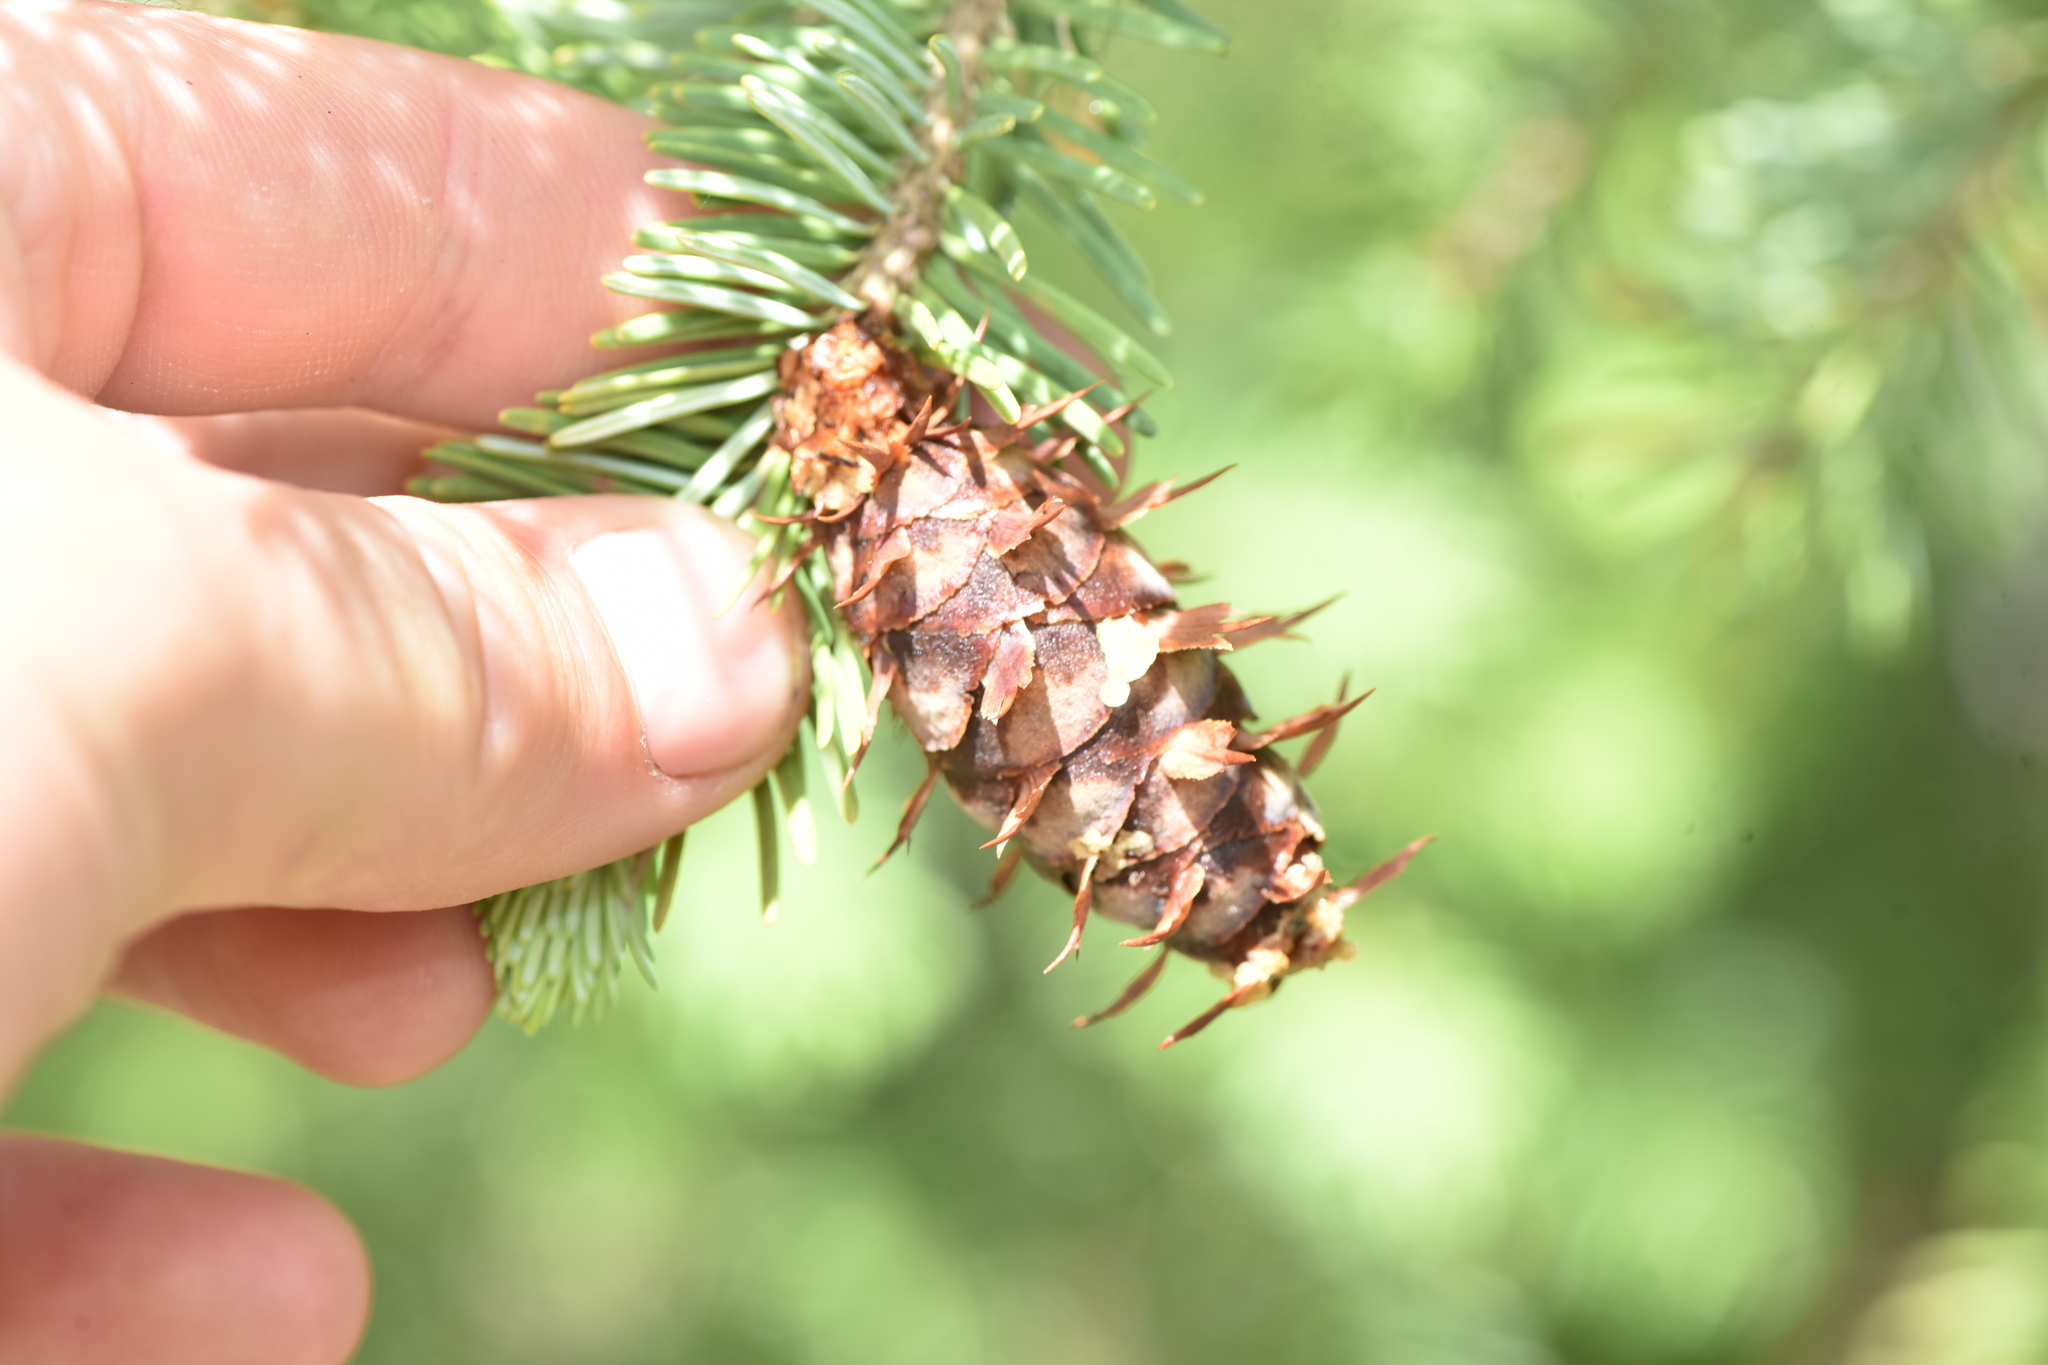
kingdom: Plantae
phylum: Tracheophyta
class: Pinopsida
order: Pinales
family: Pinaceae
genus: Pseudotsuga
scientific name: Pseudotsuga menziesii
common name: Douglas fir
